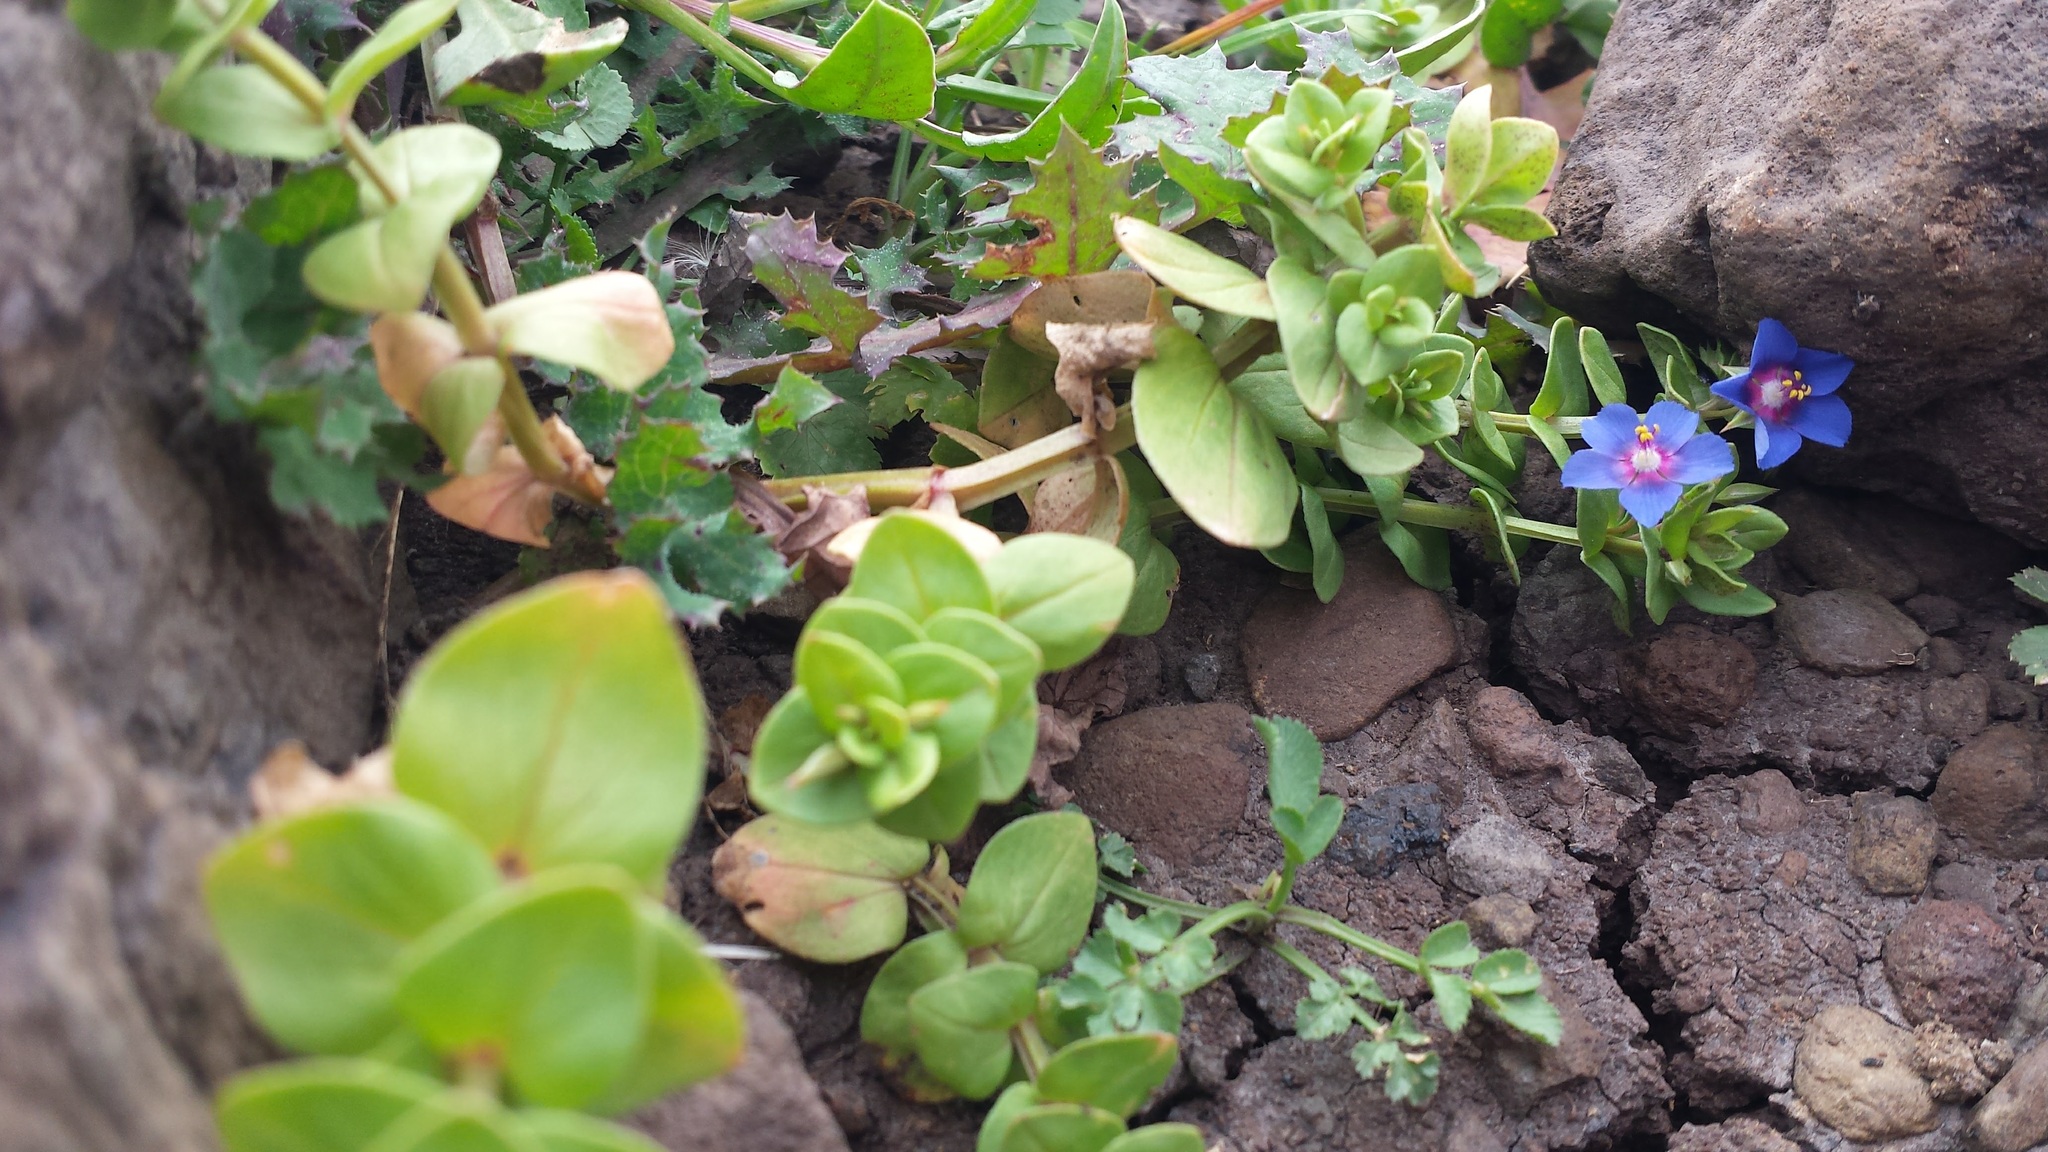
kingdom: Plantae
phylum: Tracheophyta
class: Magnoliopsida
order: Ericales
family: Primulaceae
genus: Lysimachia
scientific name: Lysimachia loeflingii
